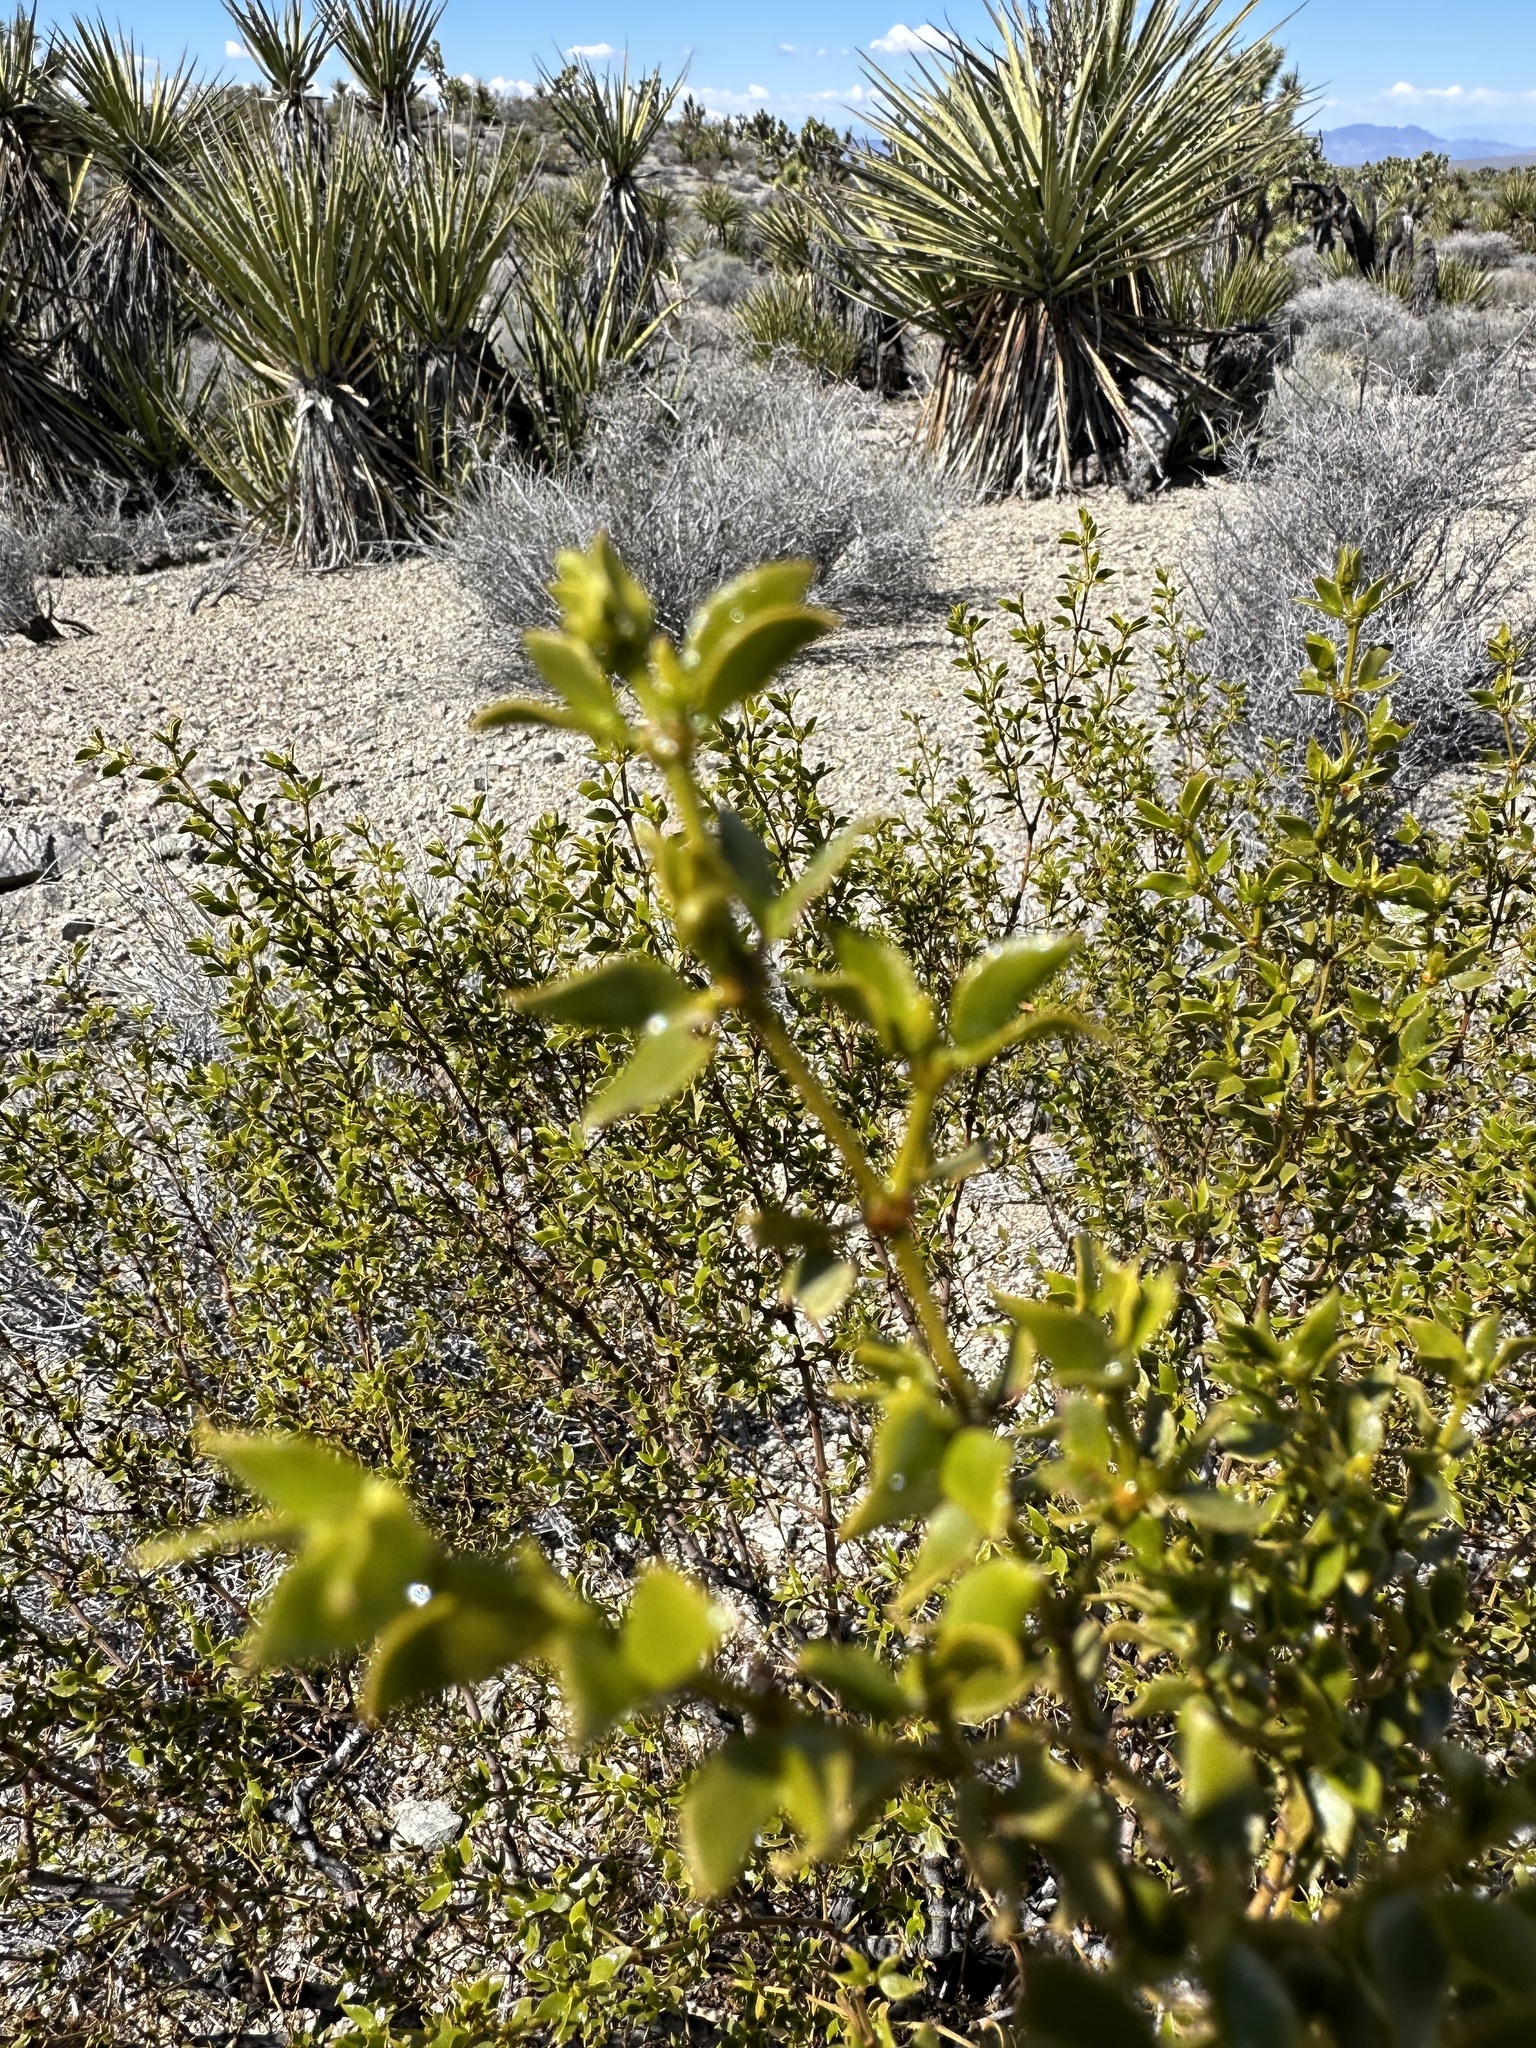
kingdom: Plantae
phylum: Tracheophyta
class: Magnoliopsida
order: Zygophyllales
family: Zygophyllaceae
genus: Larrea
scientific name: Larrea tridentata
